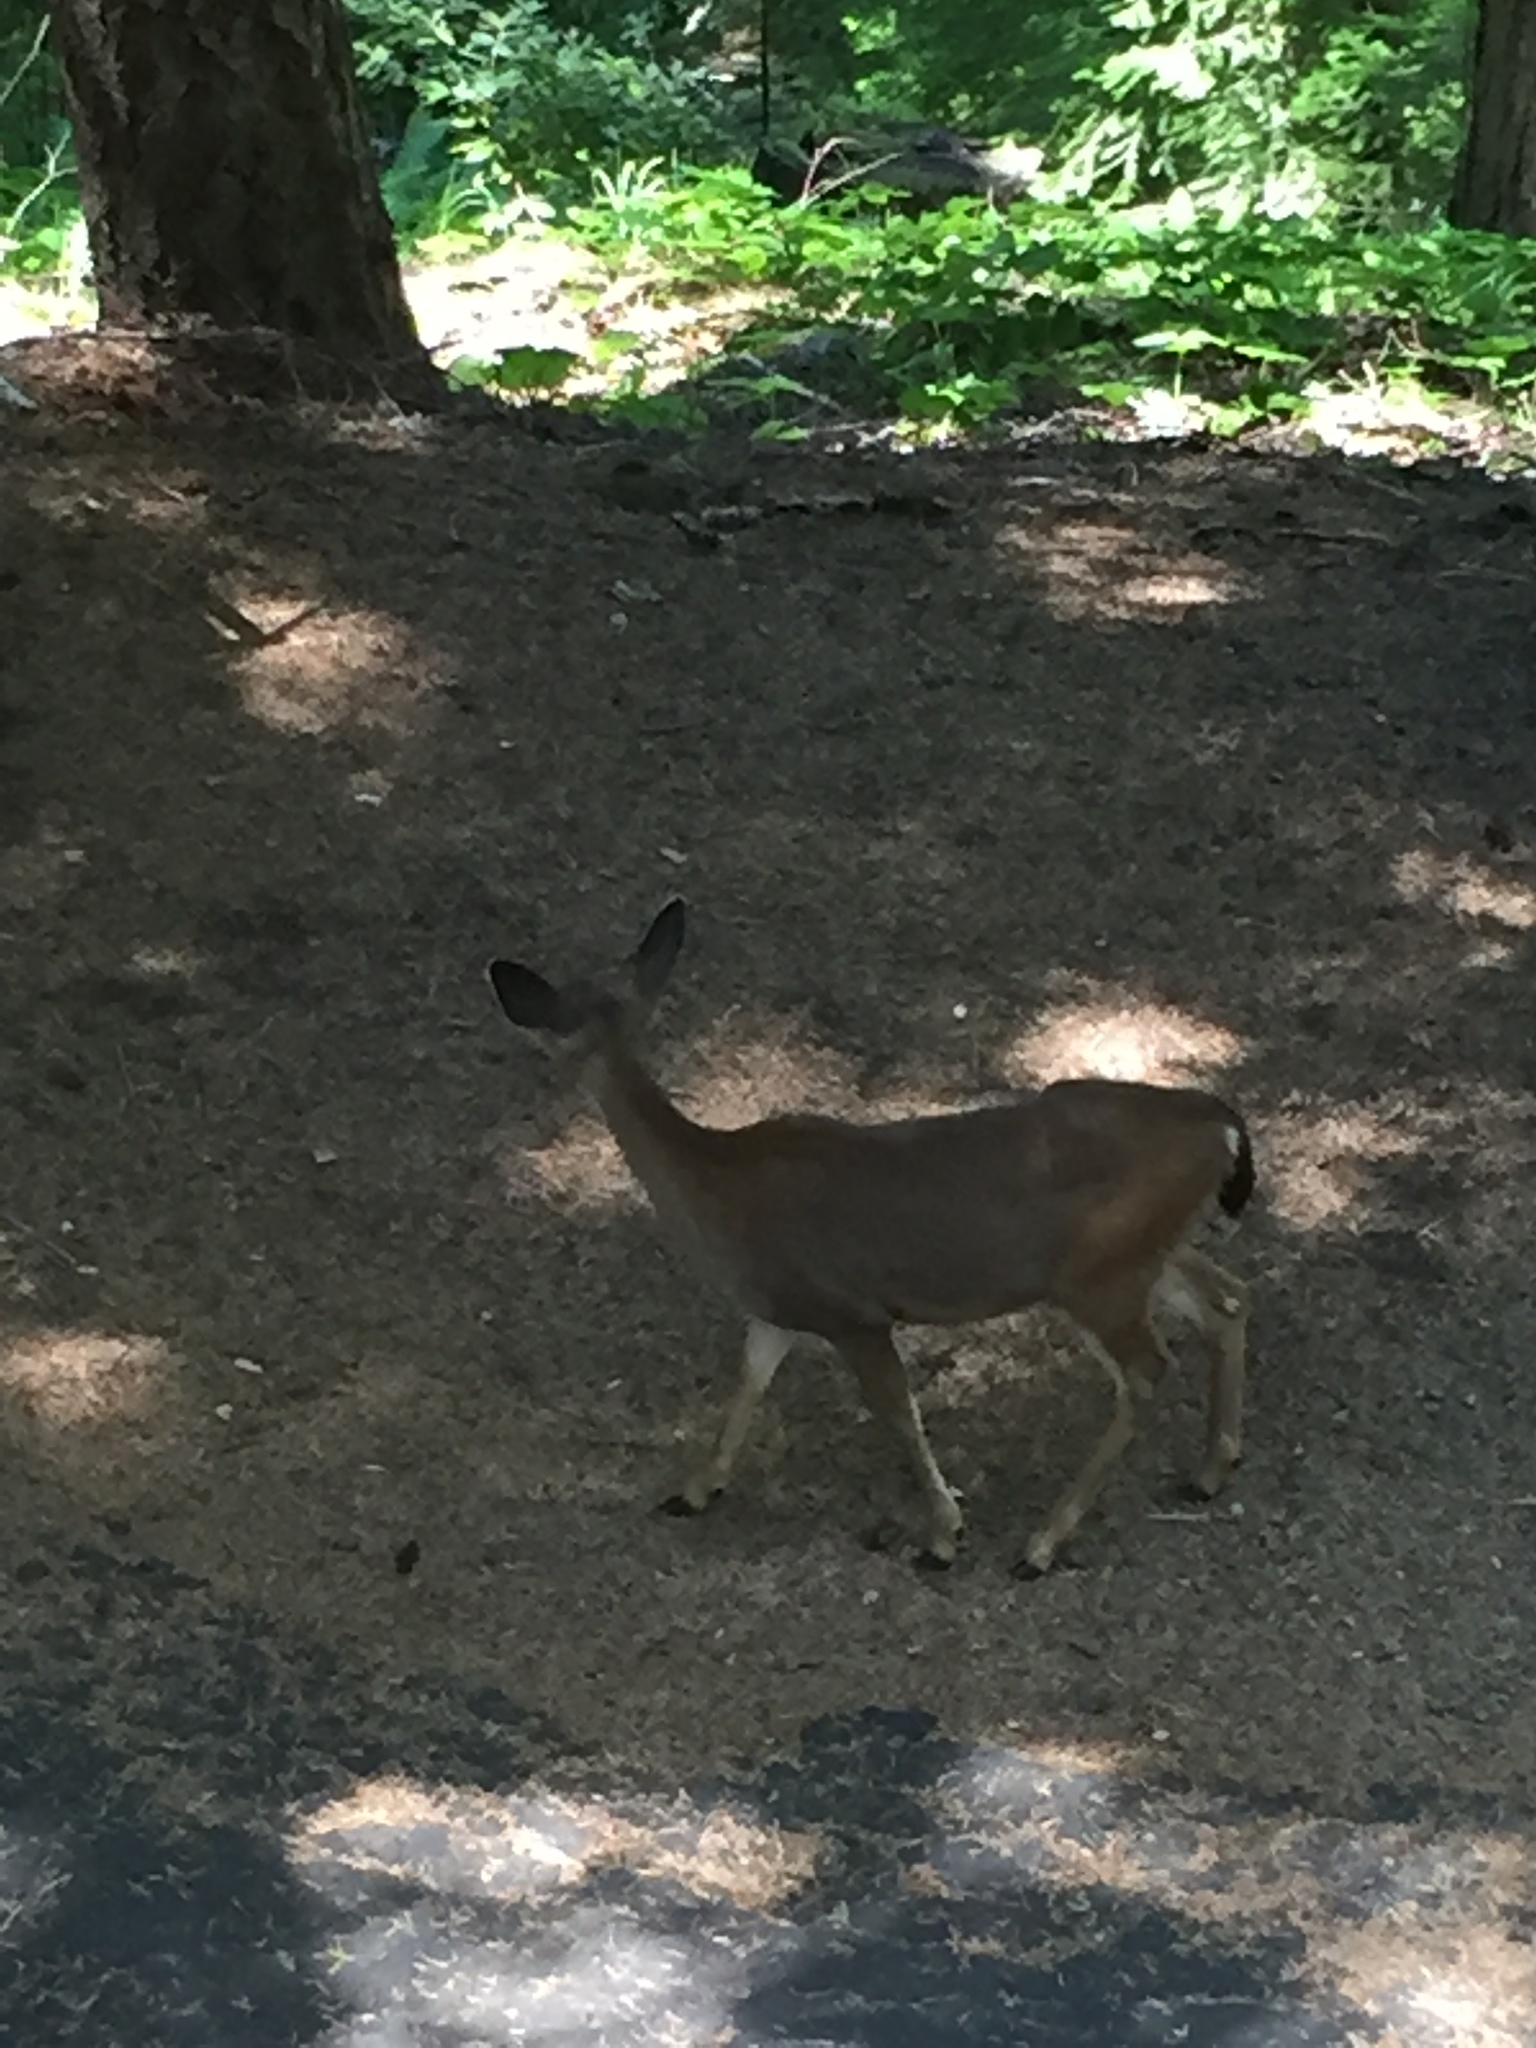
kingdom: Animalia
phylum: Chordata
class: Mammalia
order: Artiodactyla
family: Cervidae
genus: Odocoileus
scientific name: Odocoileus hemionus
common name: Mule deer
